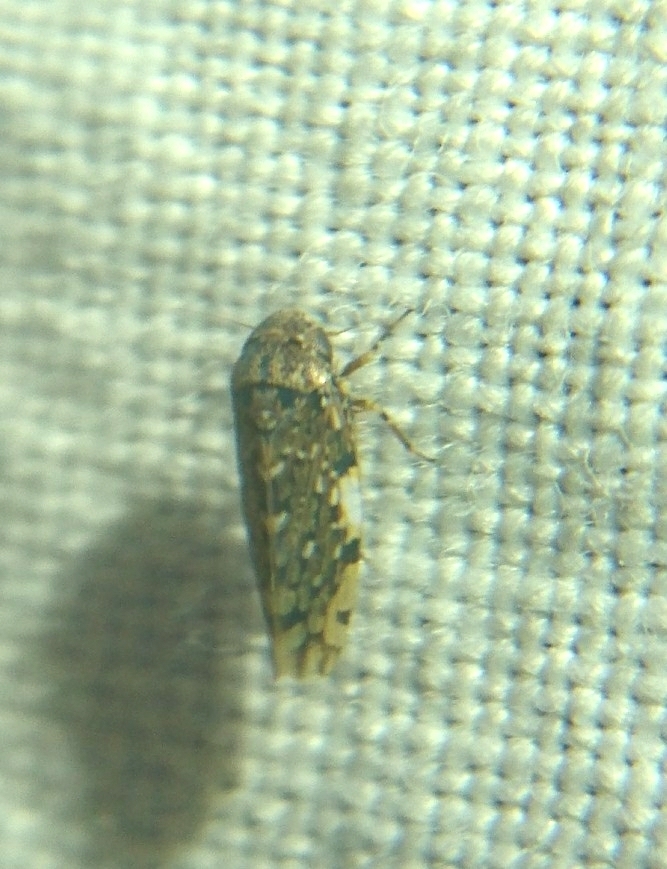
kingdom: Animalia
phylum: Arthropoda
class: Insecta
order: Hemiptera
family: Cicadellidae
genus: Xestocephalus
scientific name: Xestocephalus tessellatus
